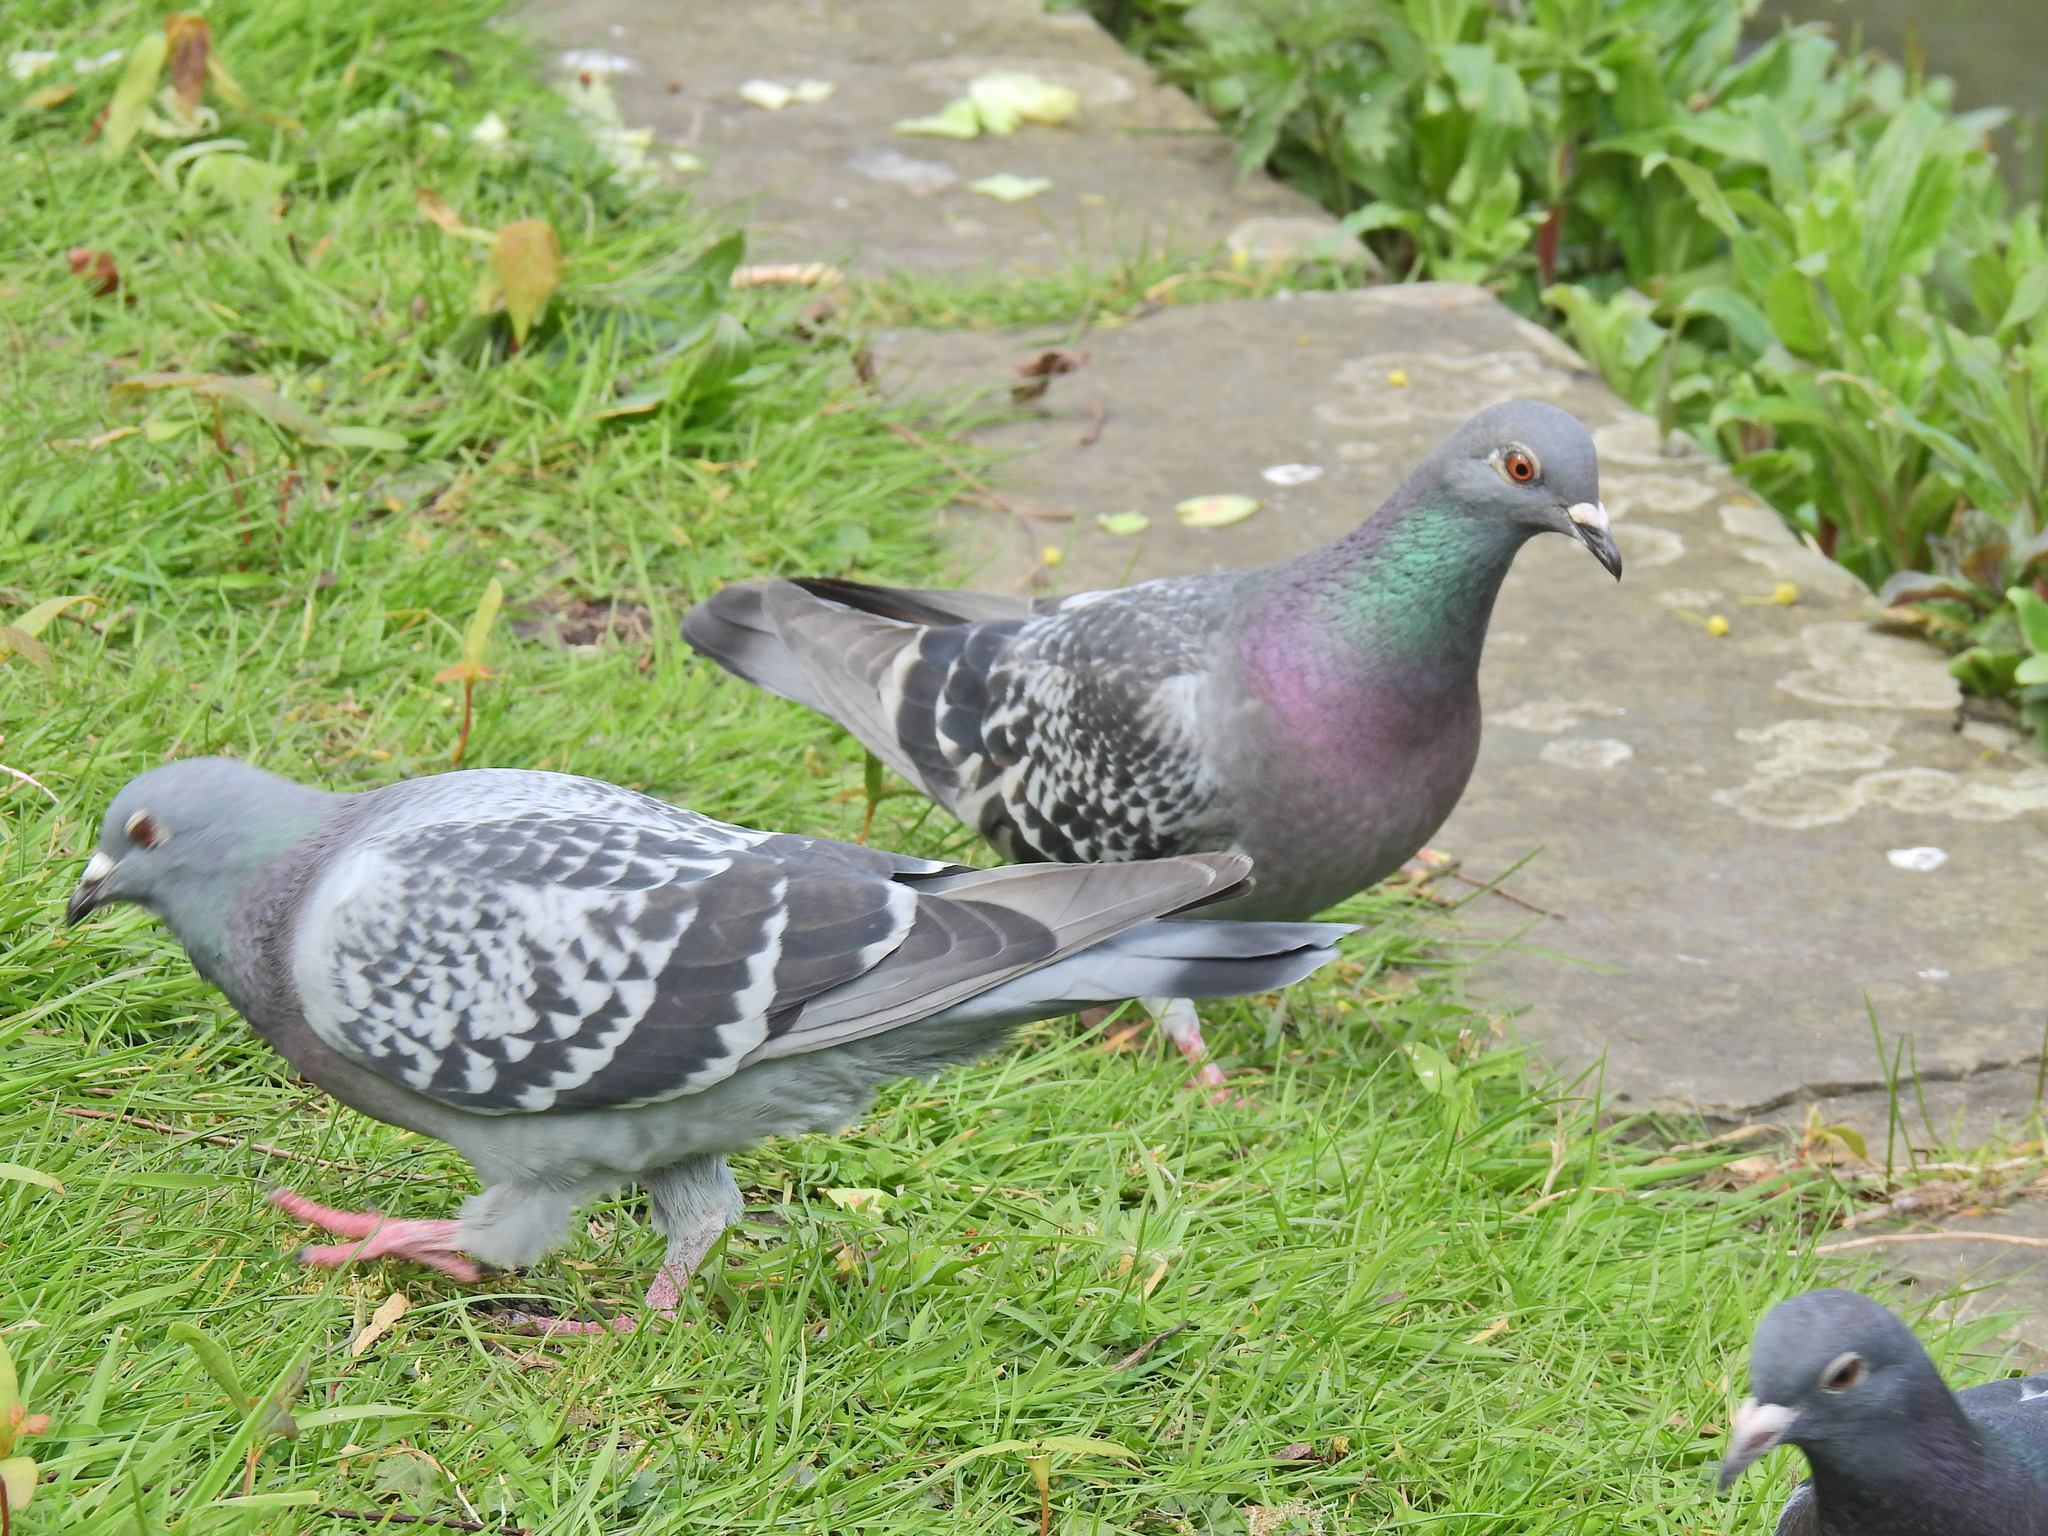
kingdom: Animalia
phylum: Chordata
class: Aves
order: Columbiformes
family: Columbidae
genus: Columba
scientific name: Columba livia
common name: Rock pigeon
